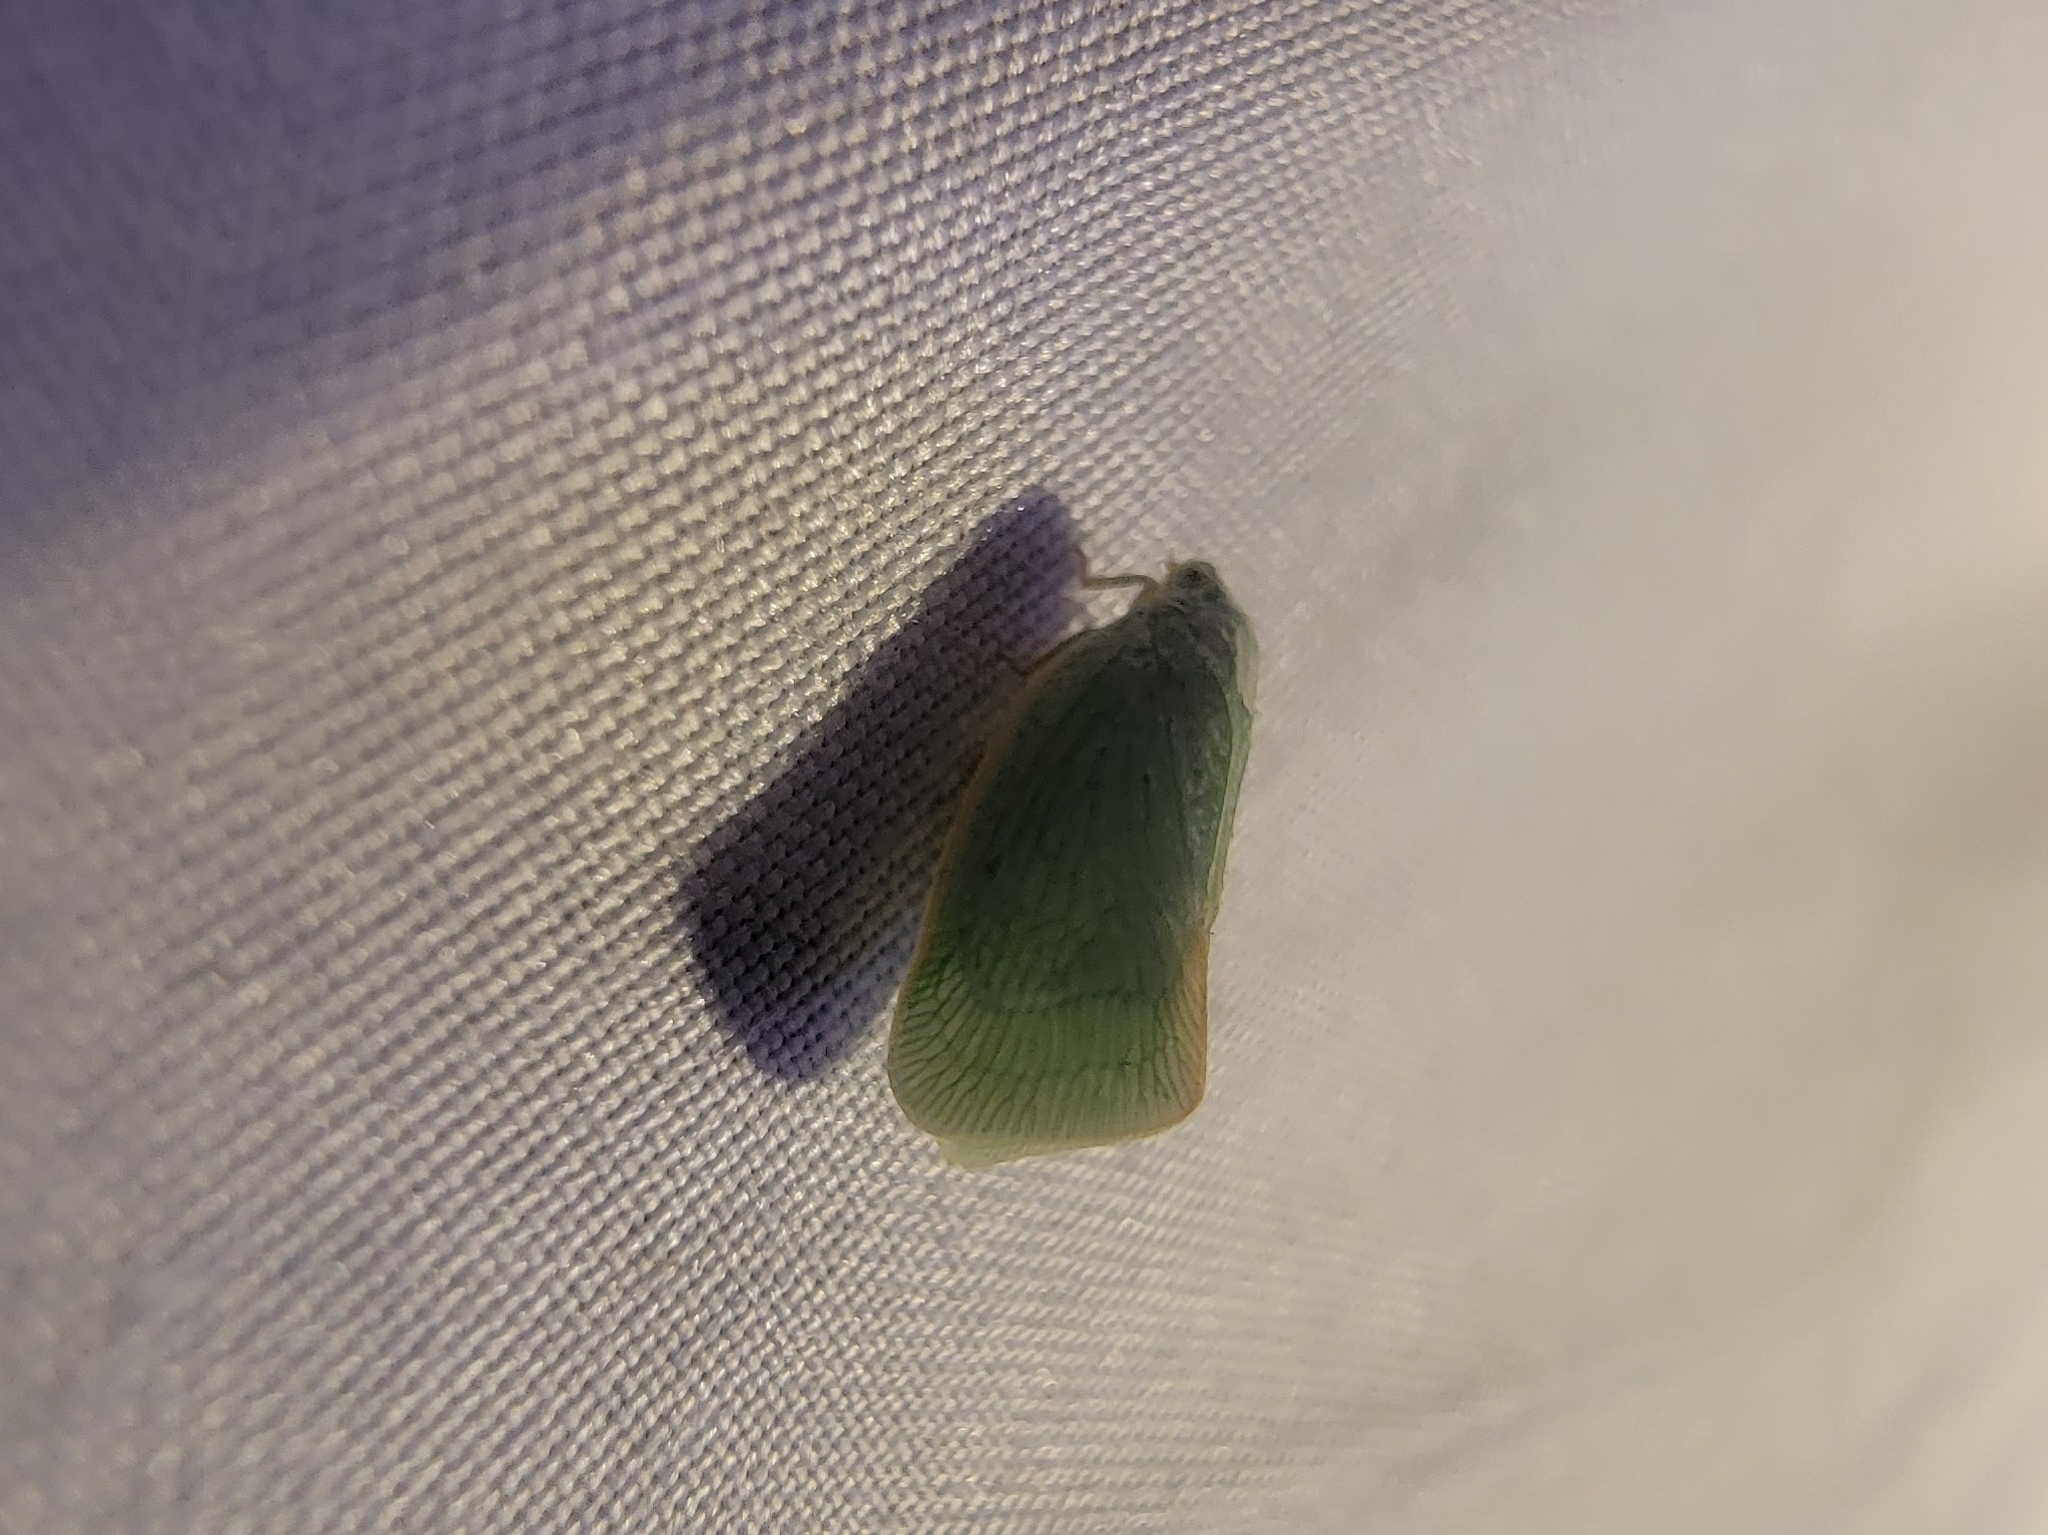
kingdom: Animalia
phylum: Arthropoda
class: Insecta
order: Hemiptera
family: Flatidae
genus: Flatormenis
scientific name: Flatormenis proxima
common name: Northern flatid planthopper
